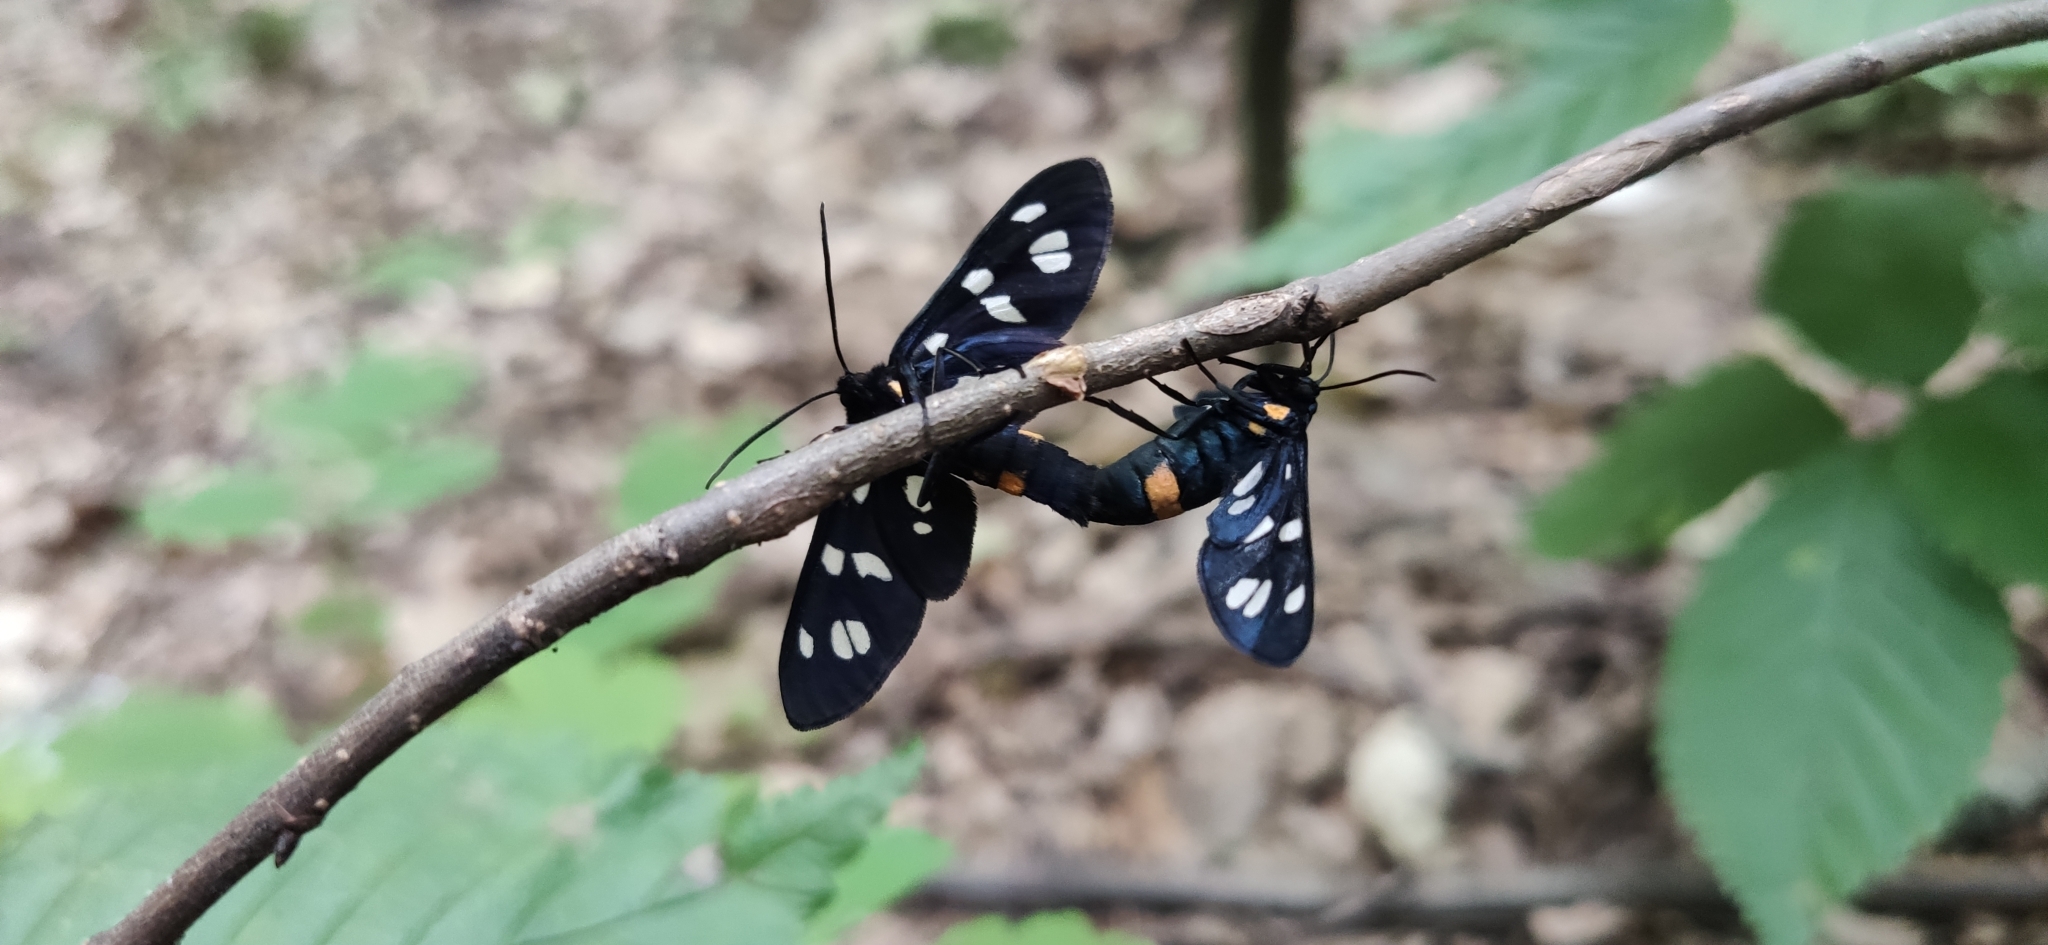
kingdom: Animalia
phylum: Arthropoda
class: Insecta
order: Lepidoptera
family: Erebidae
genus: Amata
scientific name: Amata nigricornis
